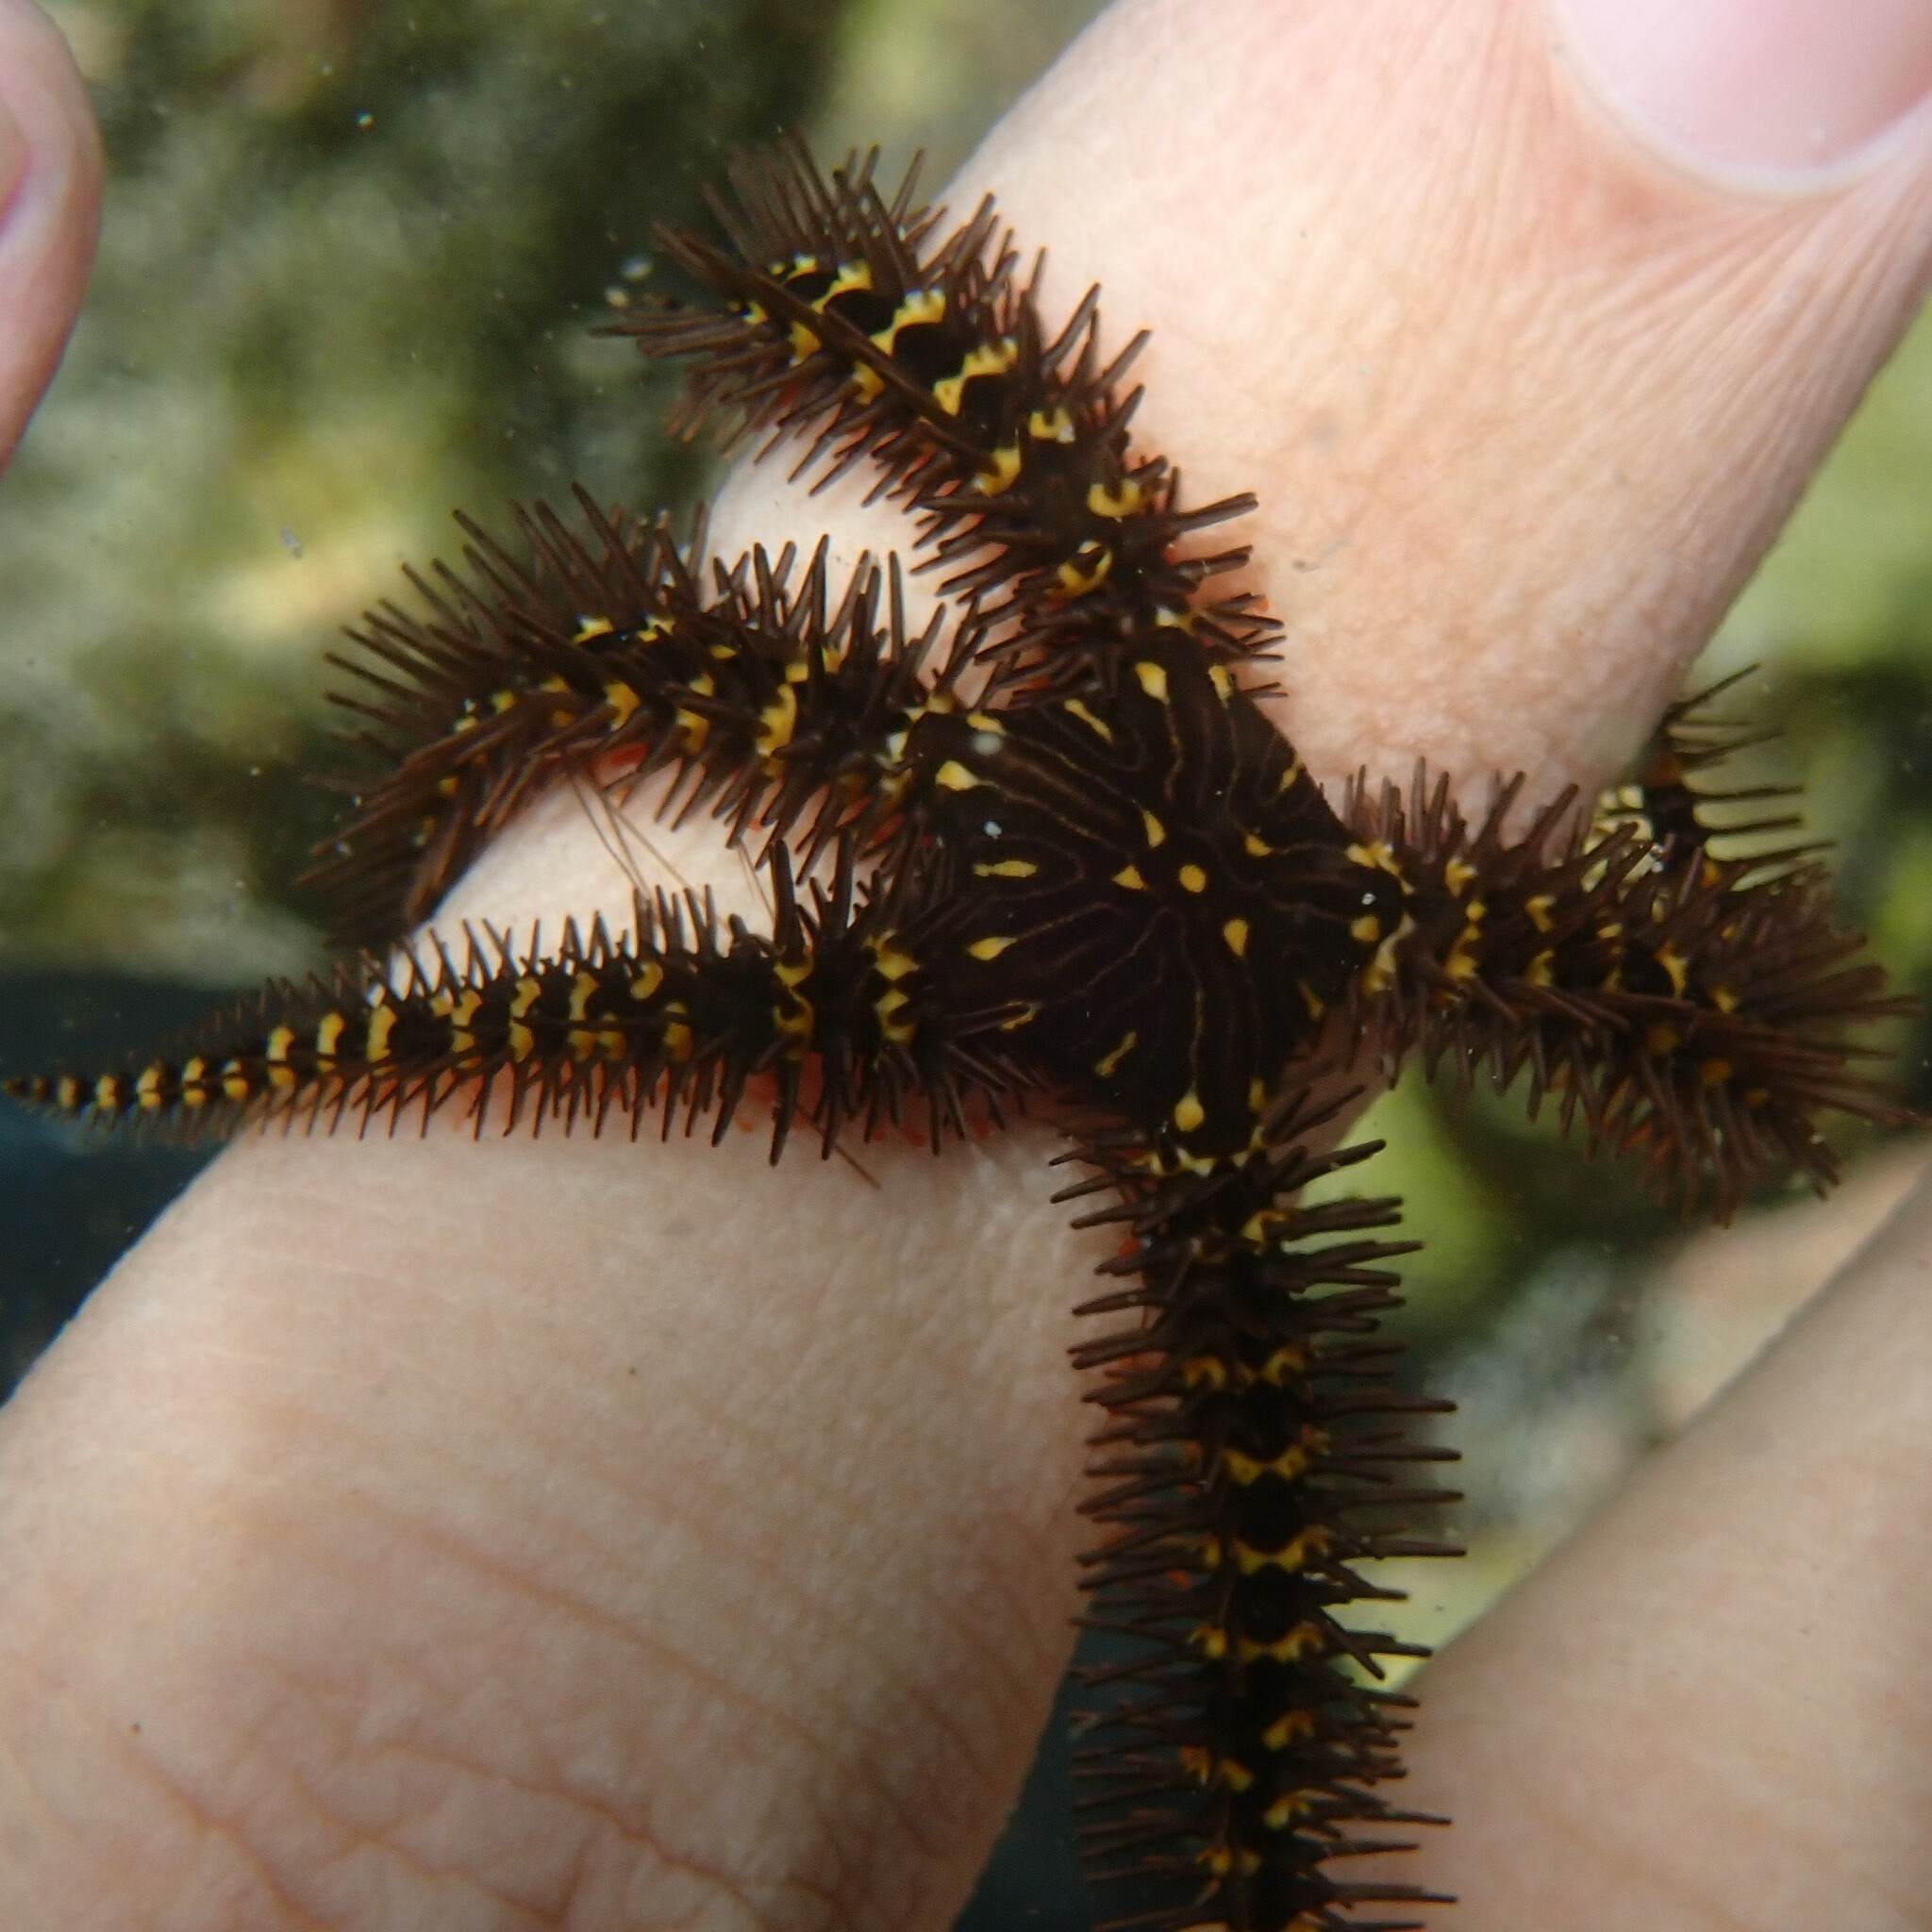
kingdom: Animalia
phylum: Echinodermata
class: Ophiuroidea
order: Ophiacanthida
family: Ophiocomidae
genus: Breviturma
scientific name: Breviturma pica
